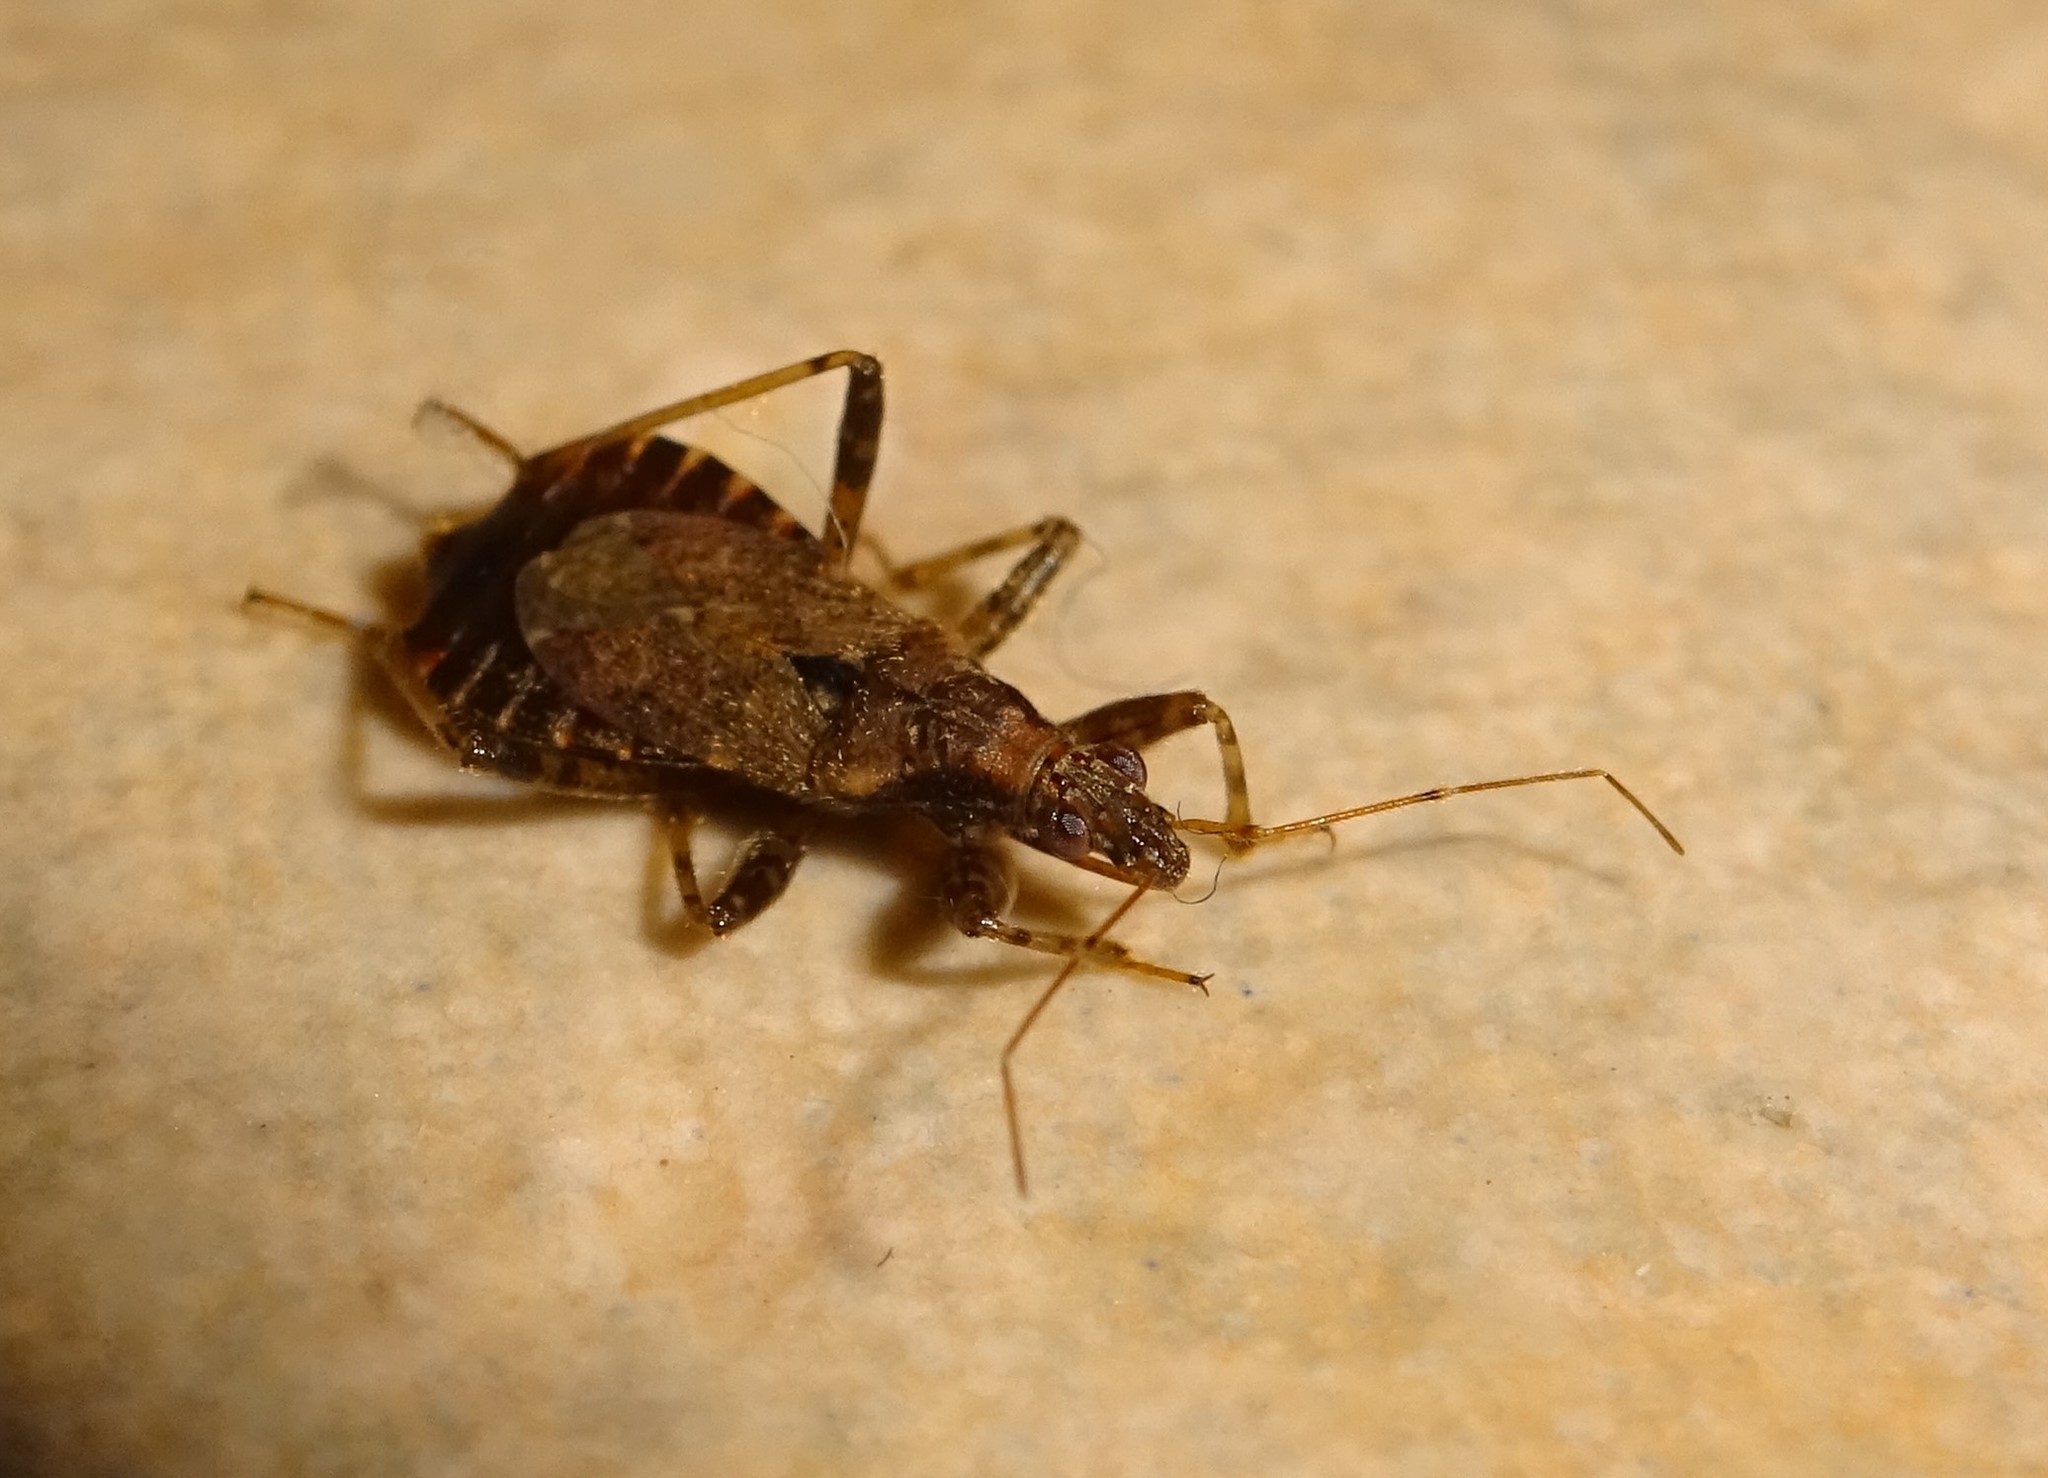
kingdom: Animalia
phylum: Arthropoda
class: Insecta
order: Hemiptera
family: Nabidae
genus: Himacerus
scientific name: Himacerus mirmicoides
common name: Ant damsel bug
